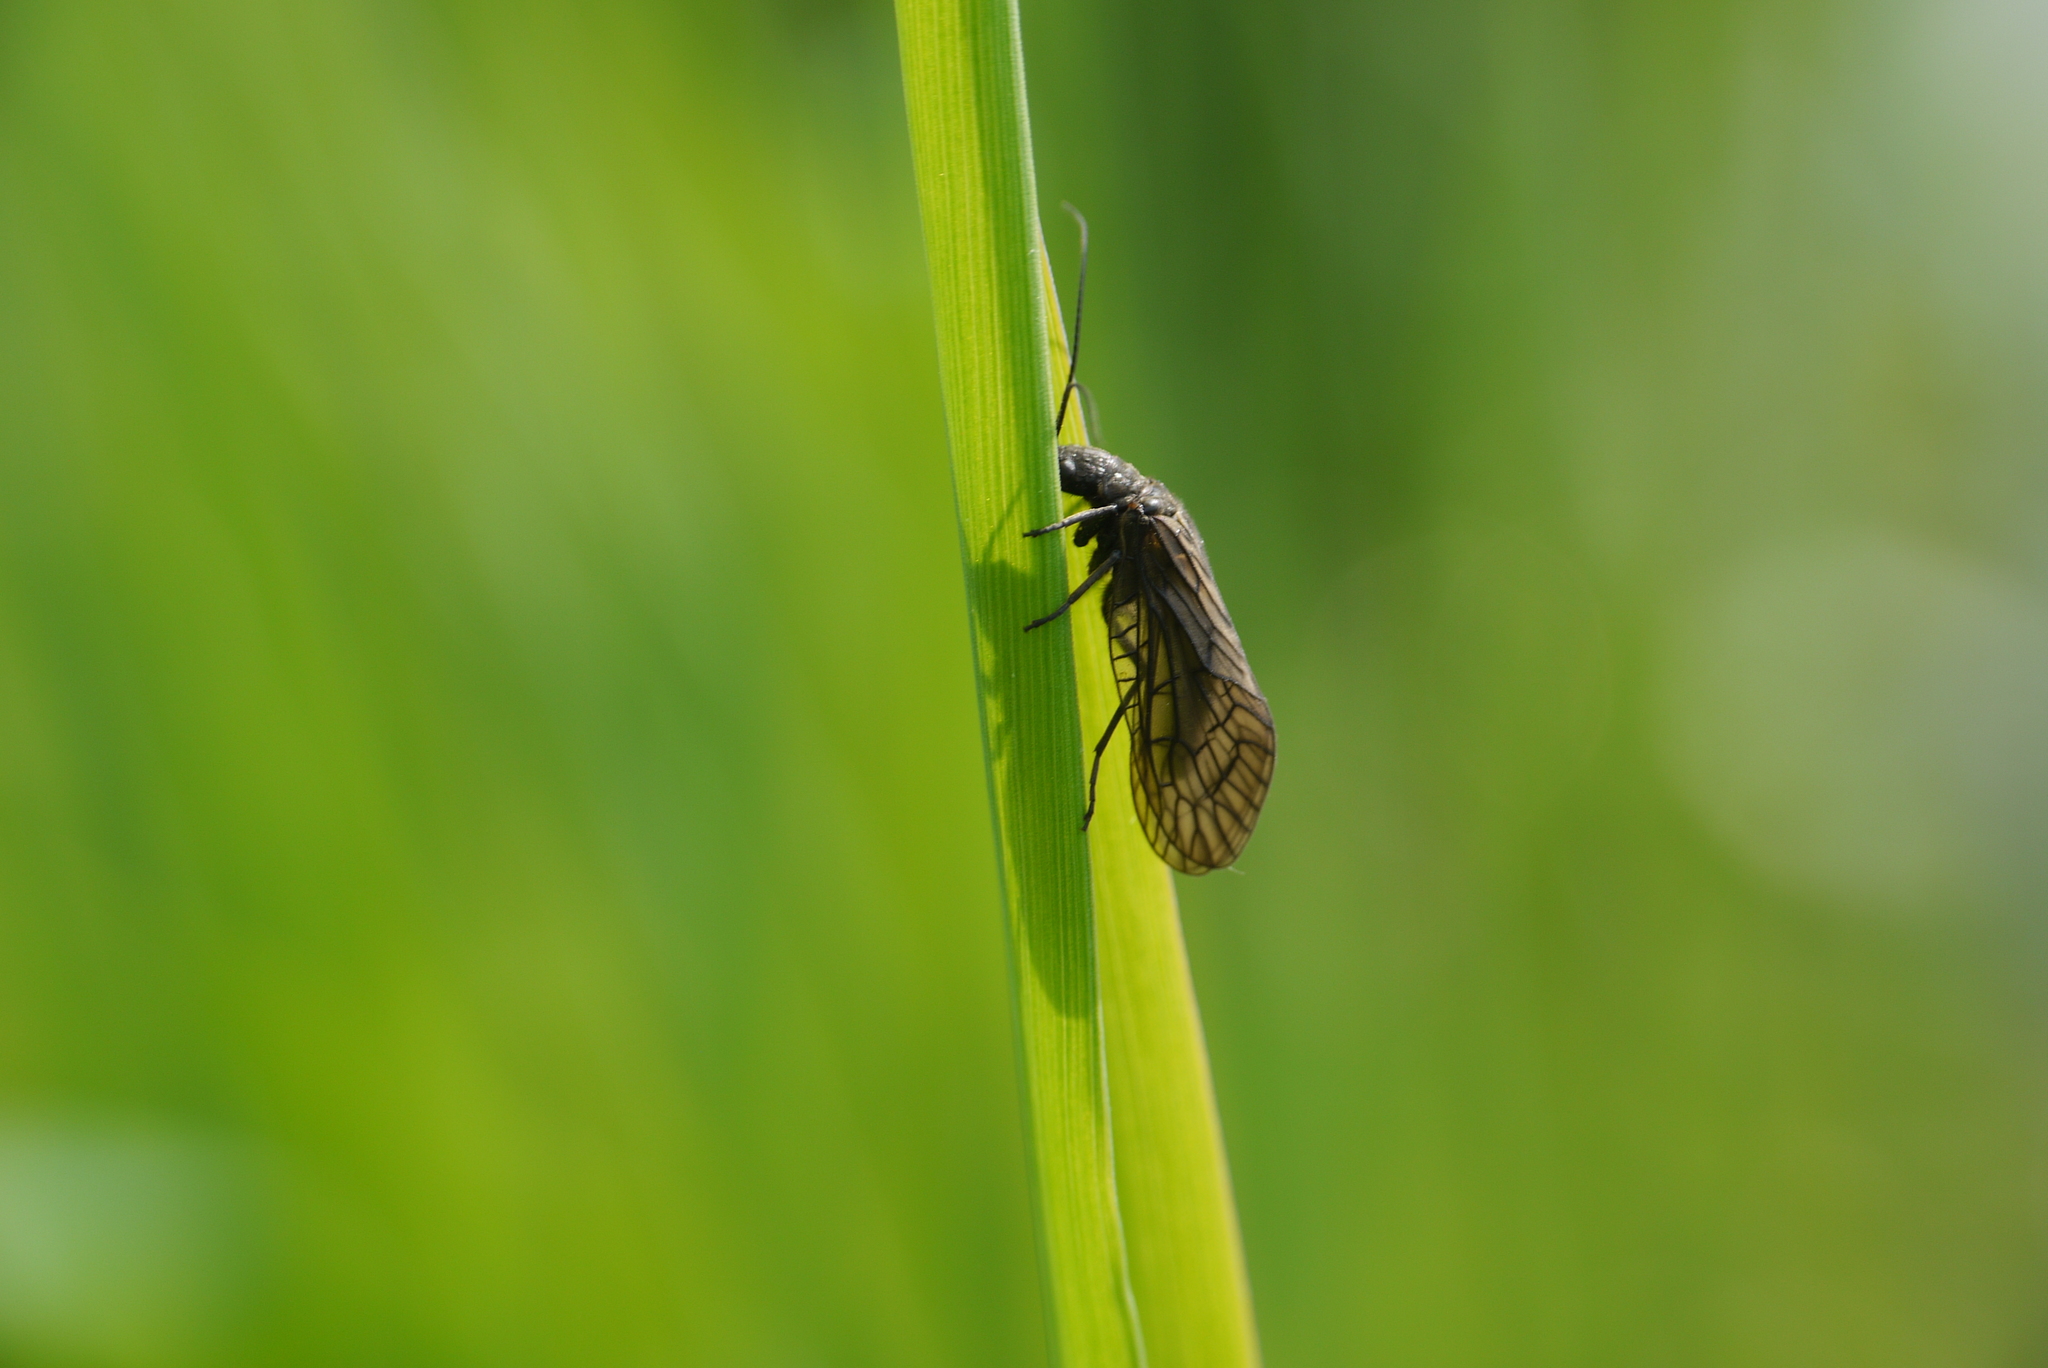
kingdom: Animalia
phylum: Arthropoda
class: Insecta
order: Megaloptera
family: Sialidae
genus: Sialis
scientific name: Sialis
